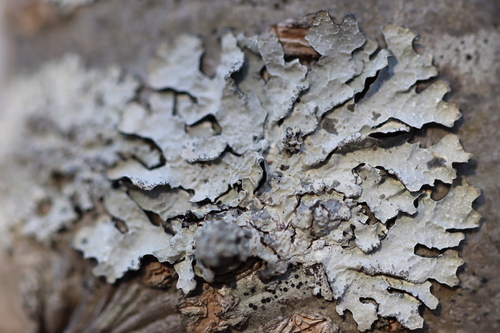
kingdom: Fungi
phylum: Ascomycota
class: Lecanoromycetes
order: Lecanorales
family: Parmeliaceae
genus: Parmelia
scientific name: Parmelia sulcata
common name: Netted shield lichen
